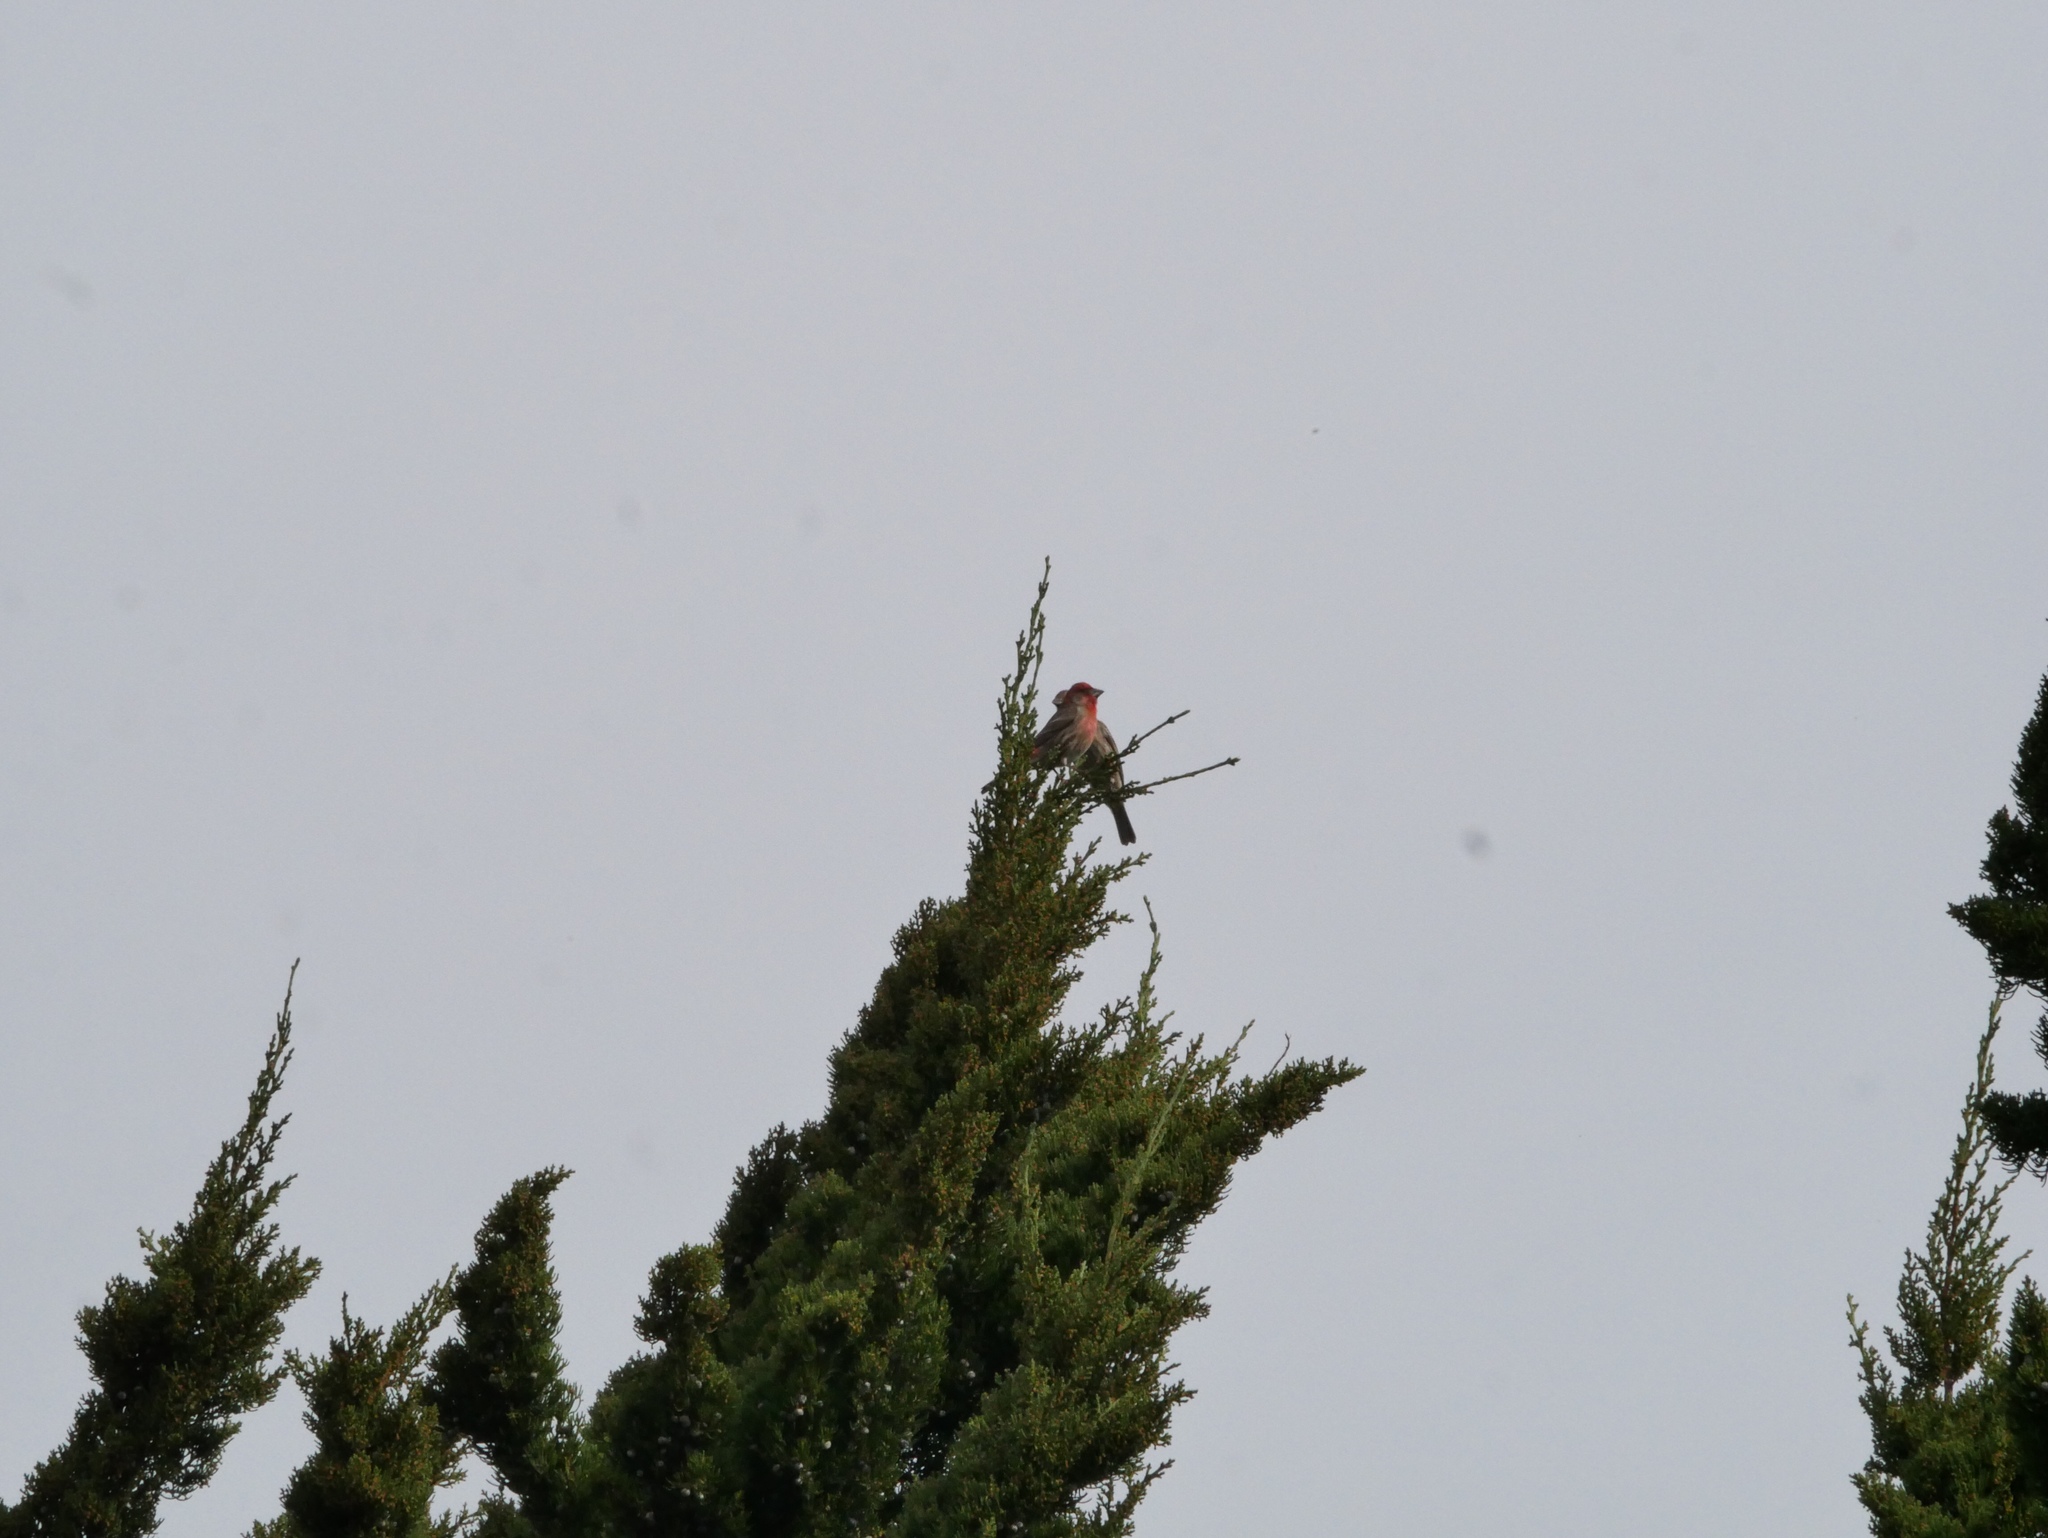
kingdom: Animalia
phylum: Chordata
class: Aves
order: Passeriformes
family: Fringillidae
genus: Haemorhous
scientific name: Haemorhous mexicanus
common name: House finch
